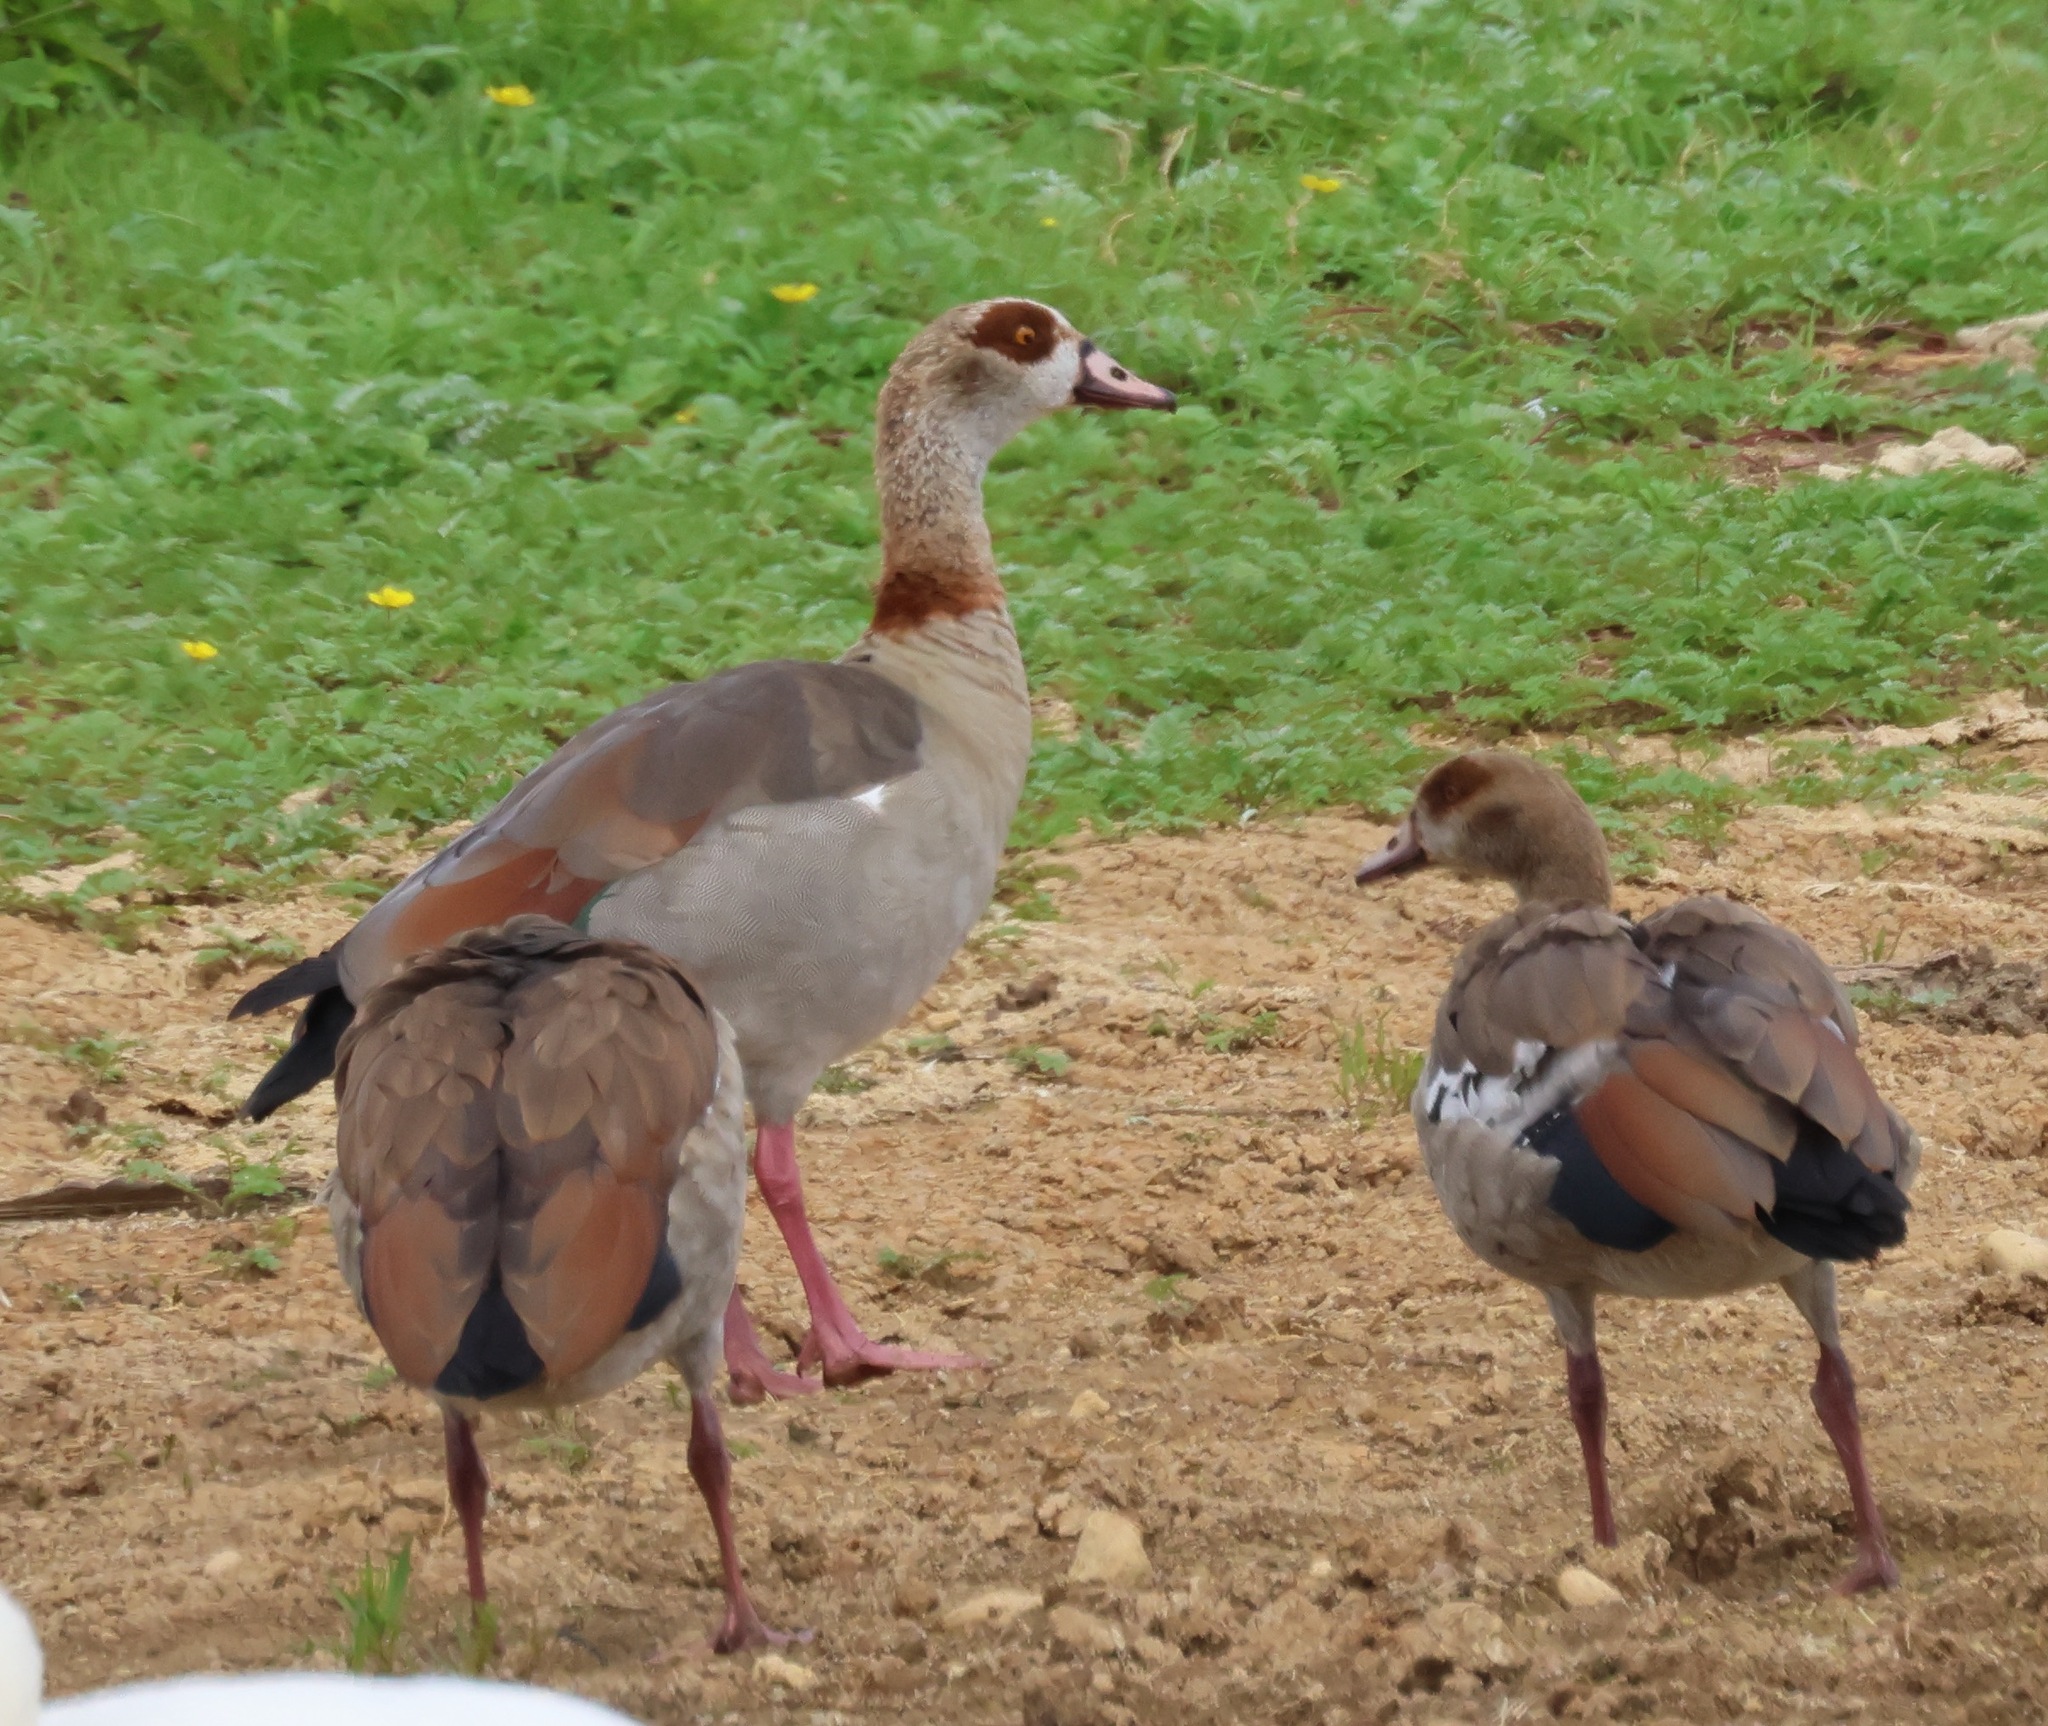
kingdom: Animalia
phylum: Chordata
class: Aves
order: Anseriformes
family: Anatidae
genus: Alopochen
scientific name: Alopochen aegyptiaca
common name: Egyptian goose
